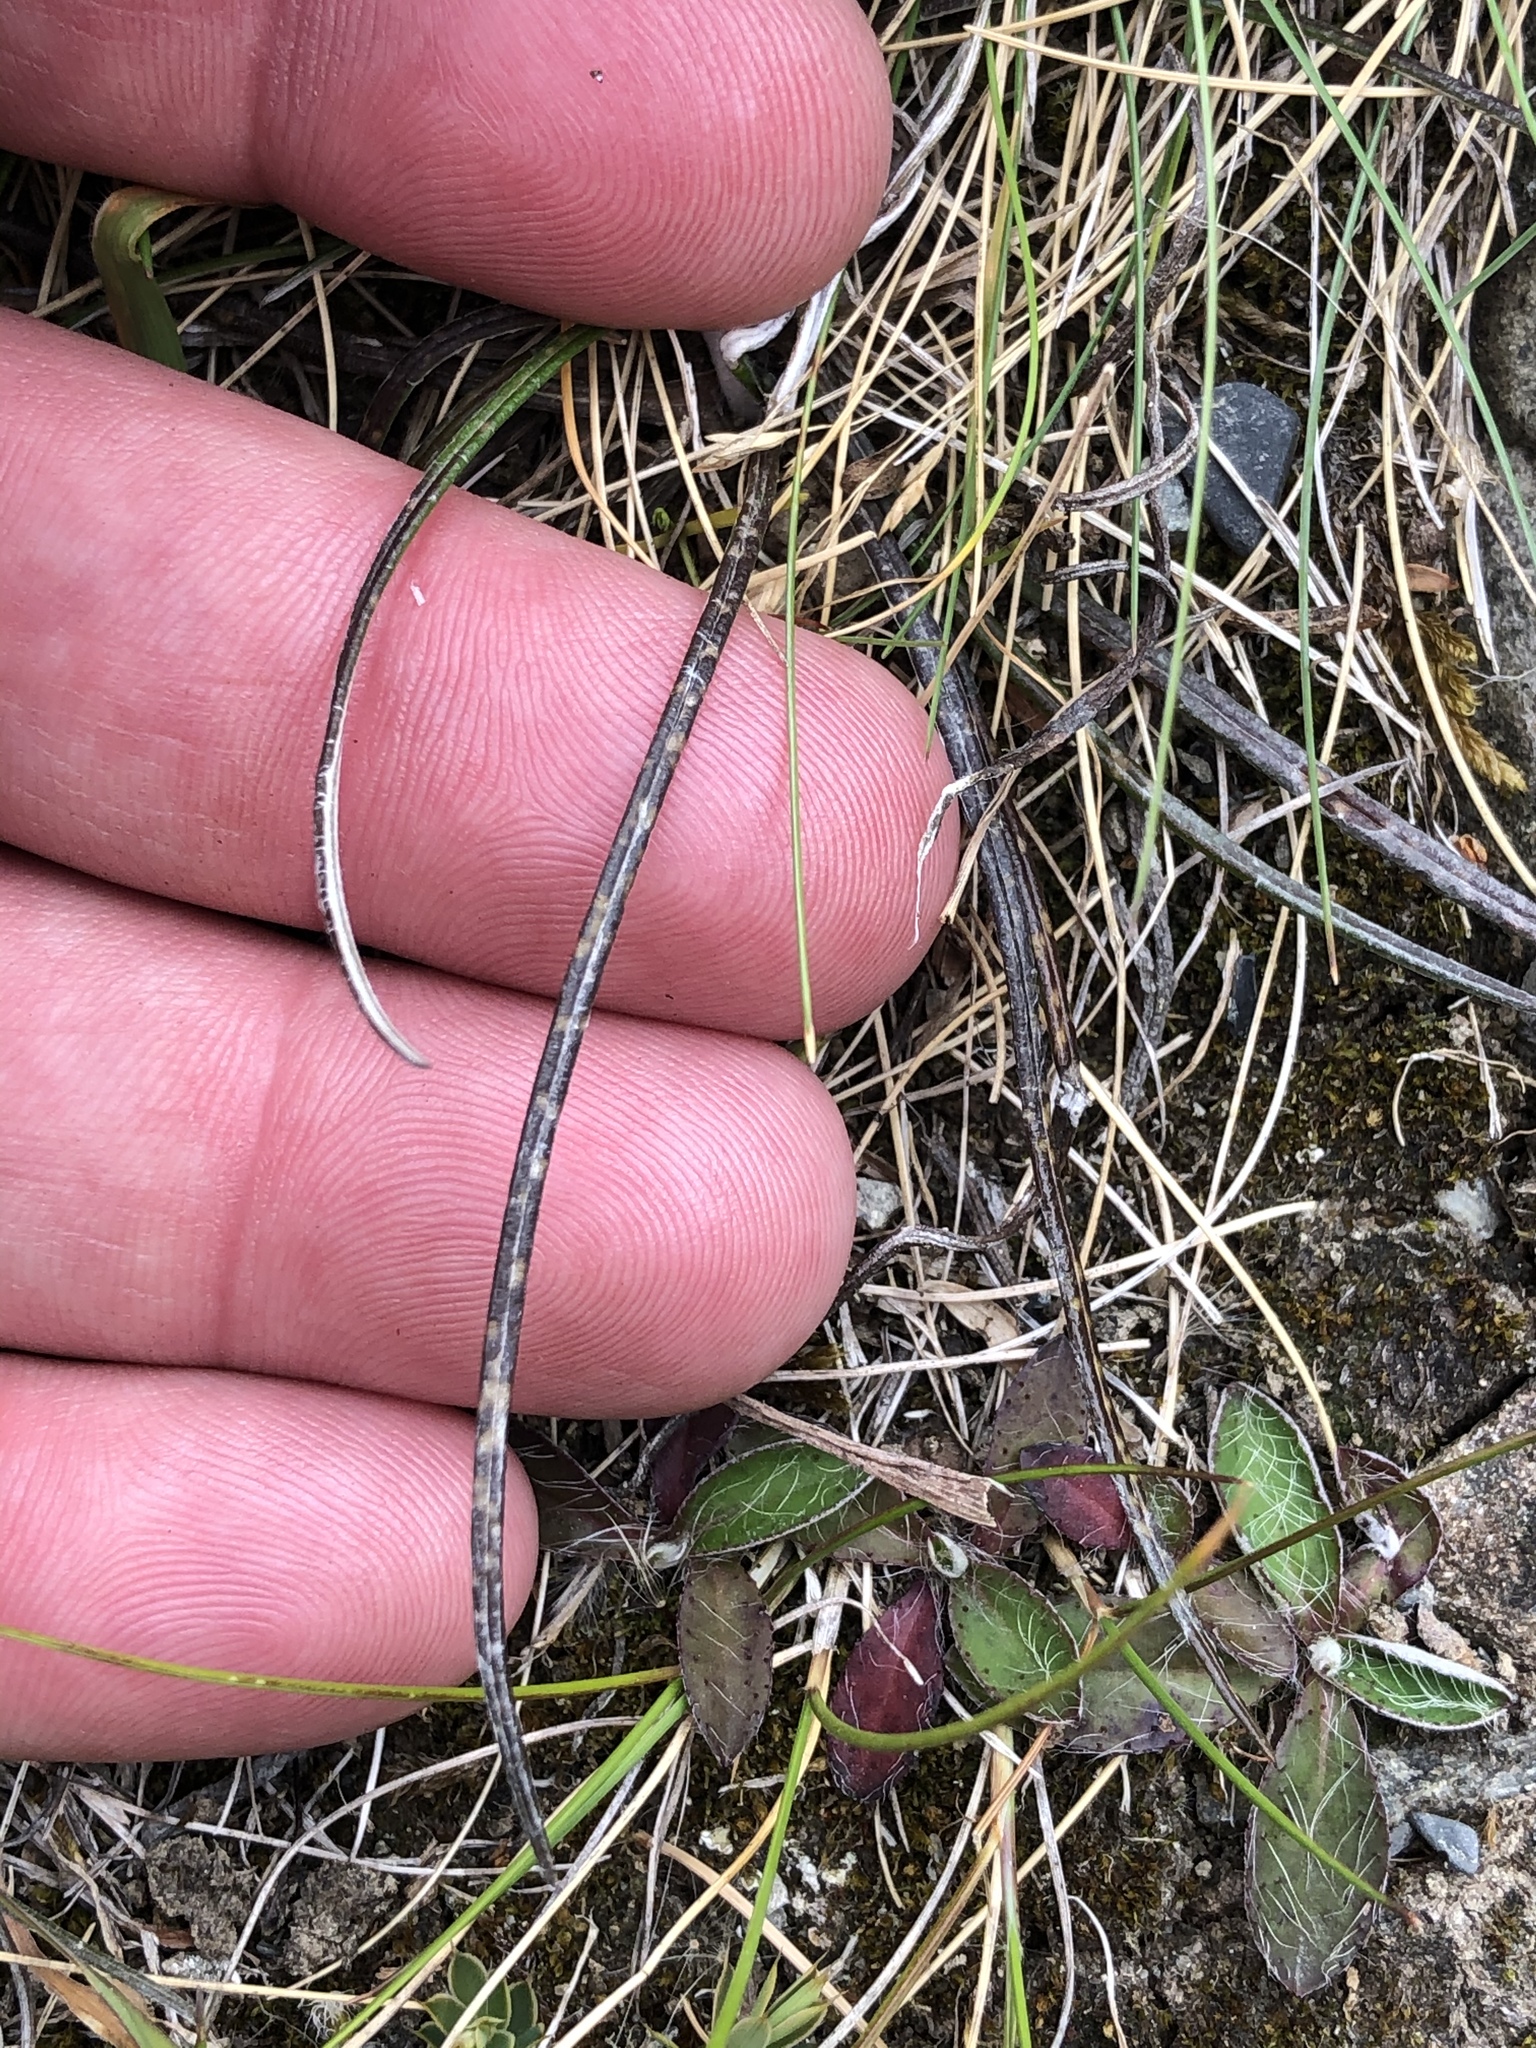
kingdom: Plantae
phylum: Tracheophyta
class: Magnoliopsida
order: Asterales
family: Asteraceae
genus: Celmisia
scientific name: Celmisia gracilenta
